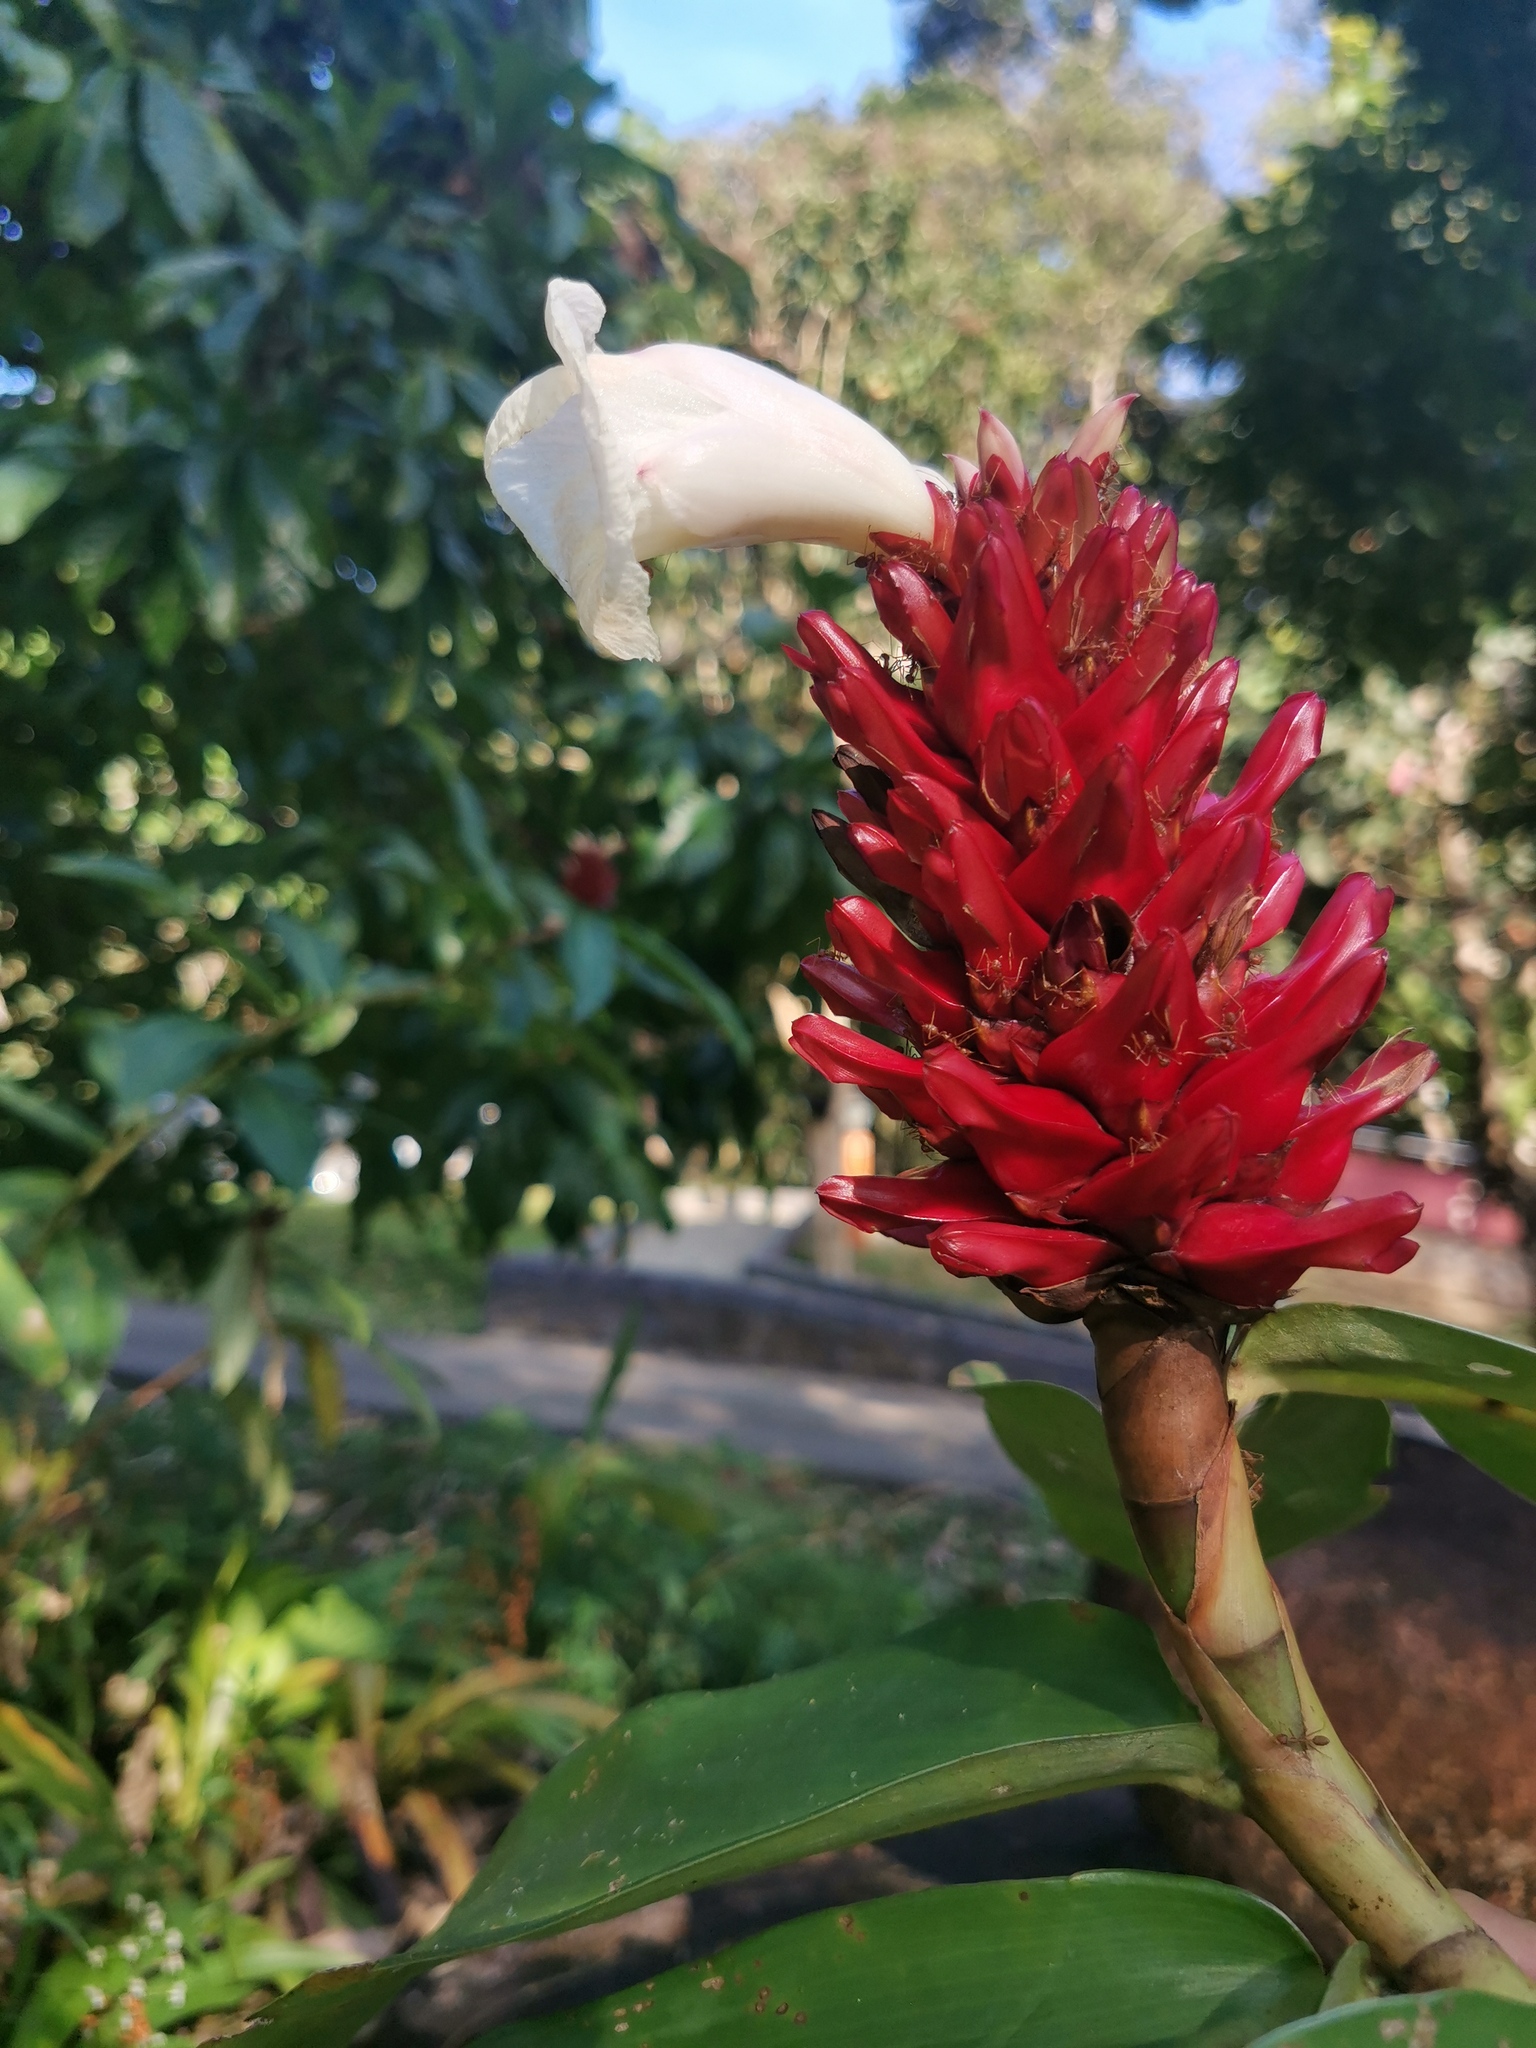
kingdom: Plantae
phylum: Tracheophyta
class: Liliopsida
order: Zingiberales
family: Costaceae
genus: Hellenia
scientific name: Hellenia speciosa
